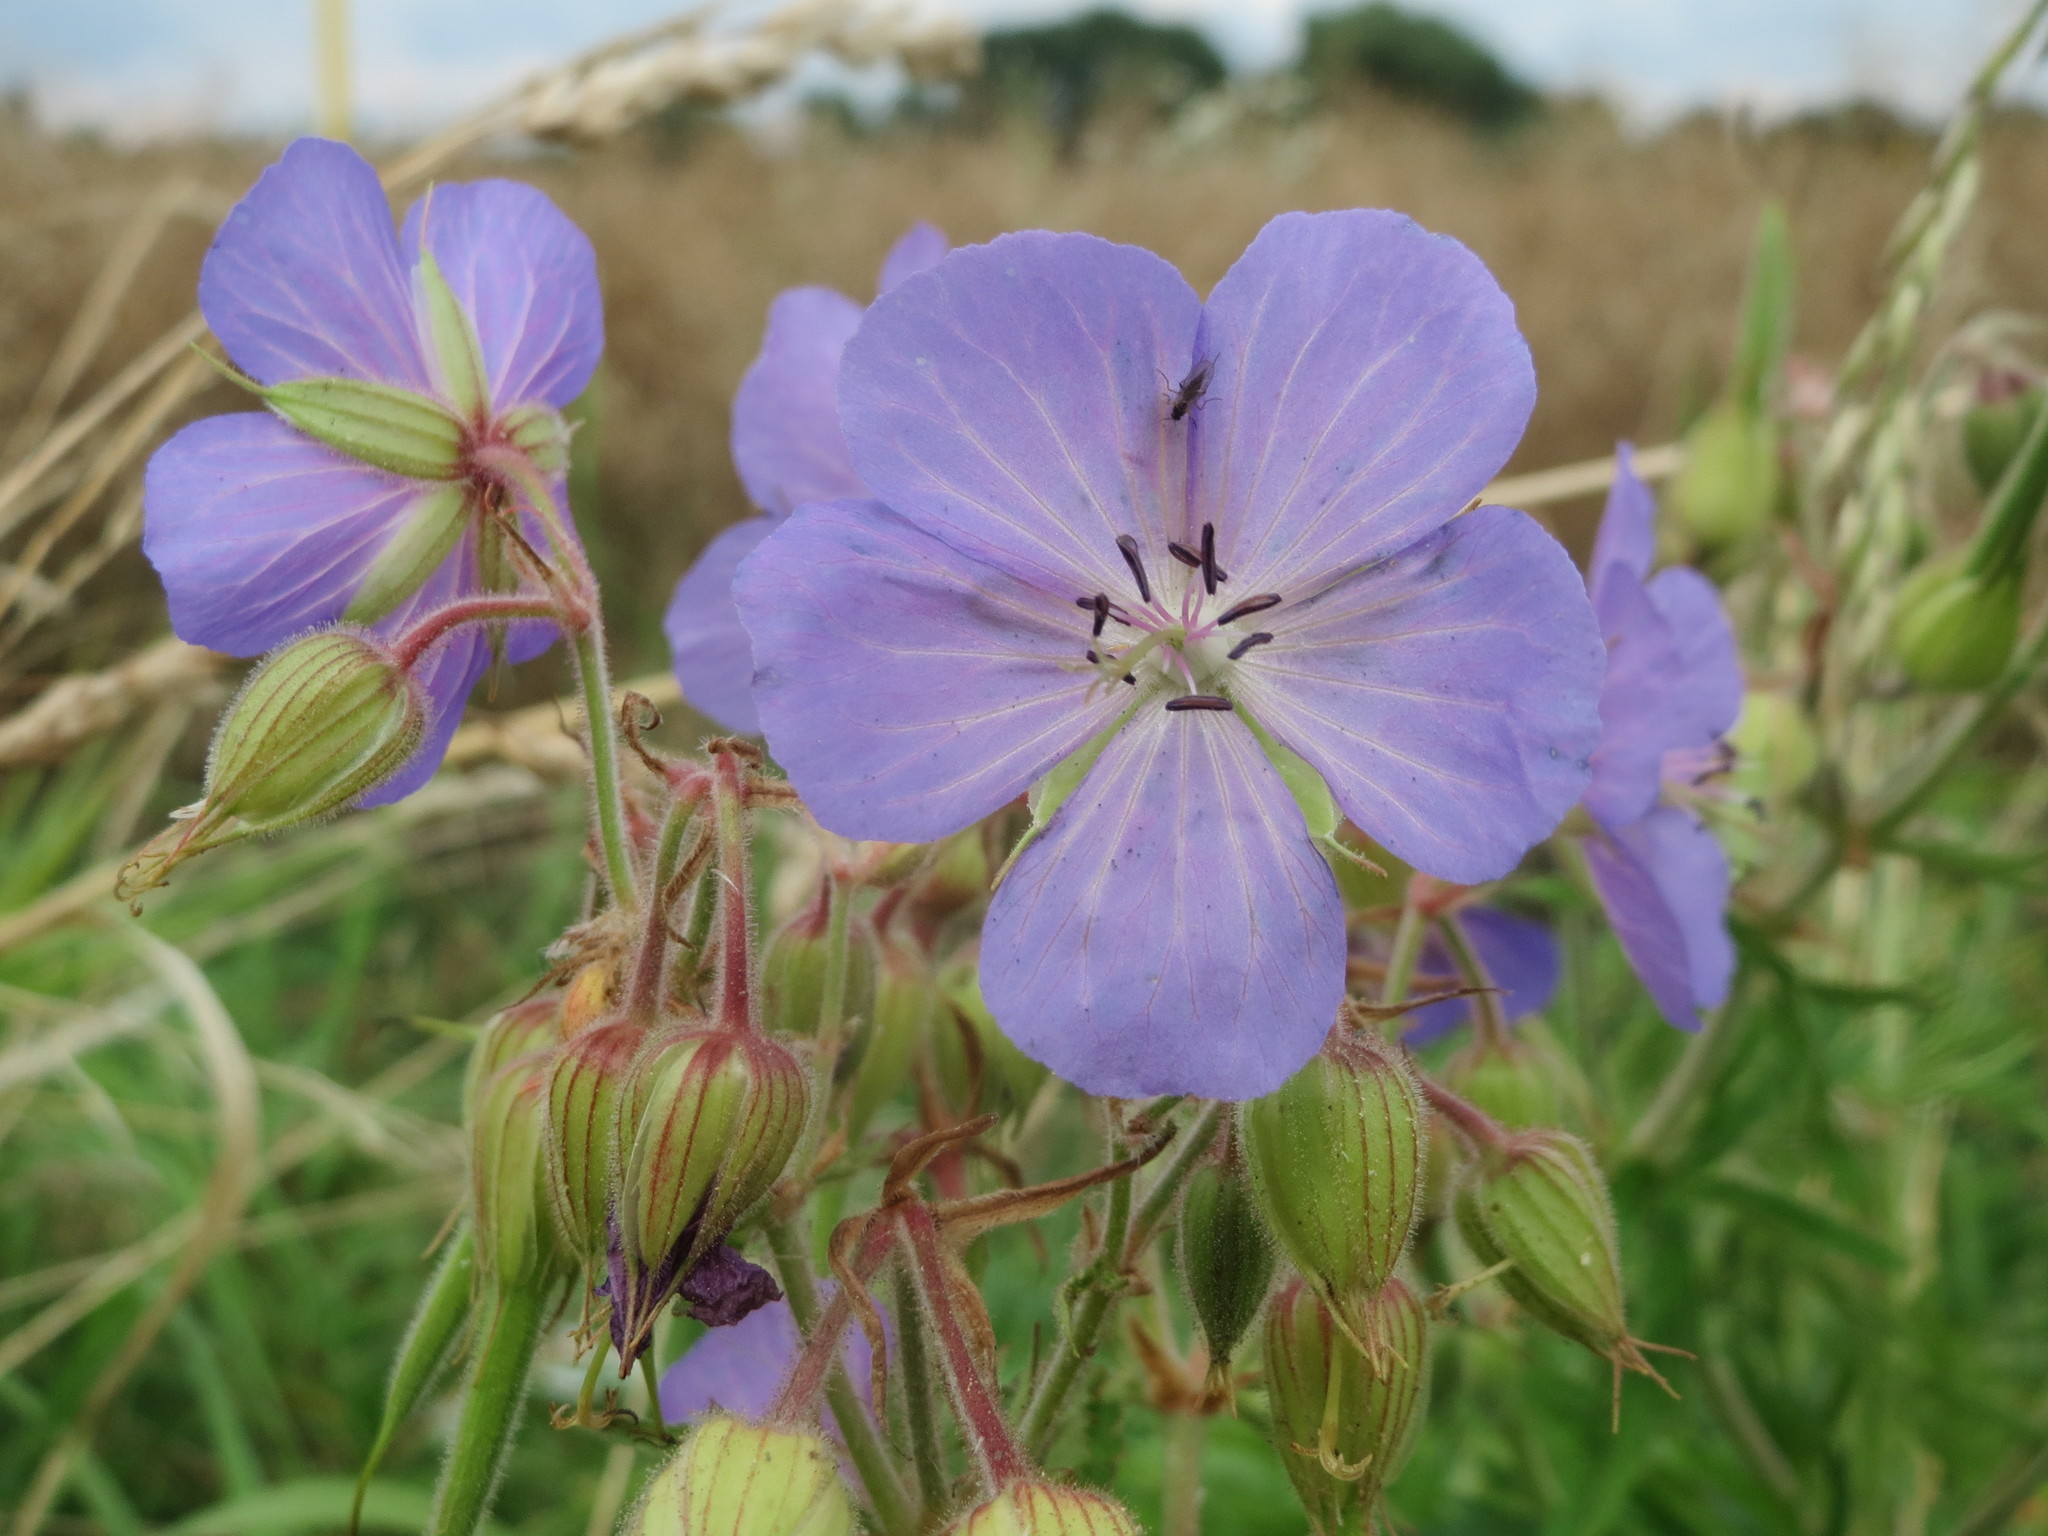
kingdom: Plantae
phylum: Tracheophyta
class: Magnoliopsida
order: Geraniales
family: Geraniaceae
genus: Geranium
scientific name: Geranium pratense
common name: Meadow crane's-bill
